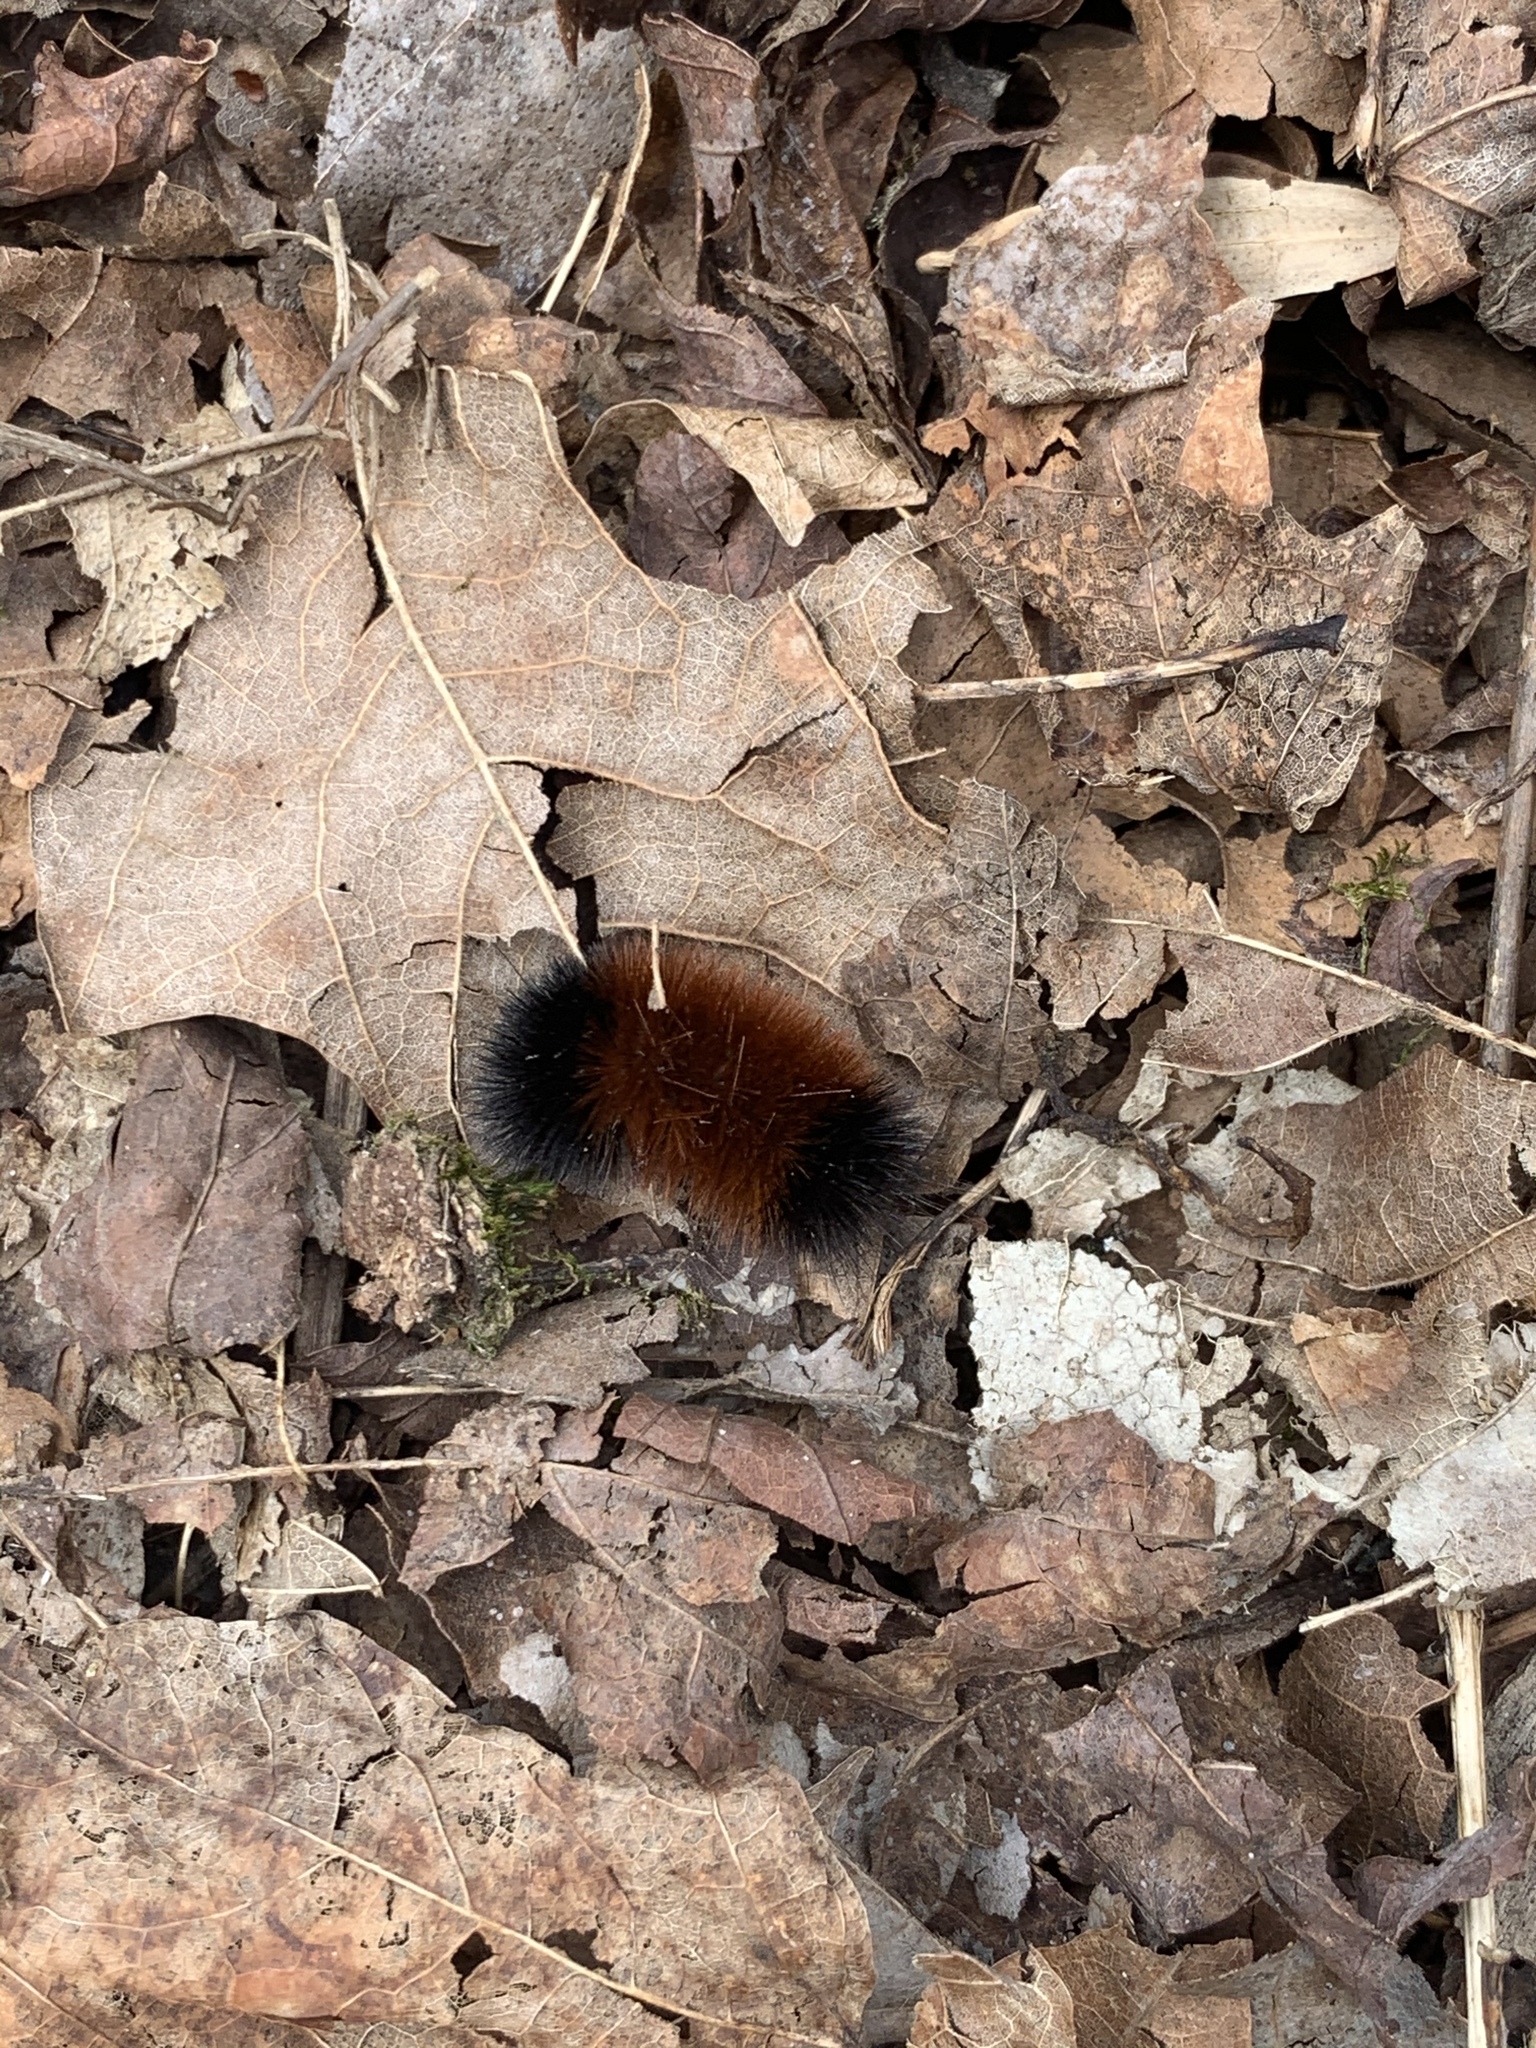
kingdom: Animalia
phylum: Arthropoda
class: Insecta
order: Lepidoptera
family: Erebidae
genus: Pyrrharctia
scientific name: Pyrrharctia isabella
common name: Isabella tiger moth
